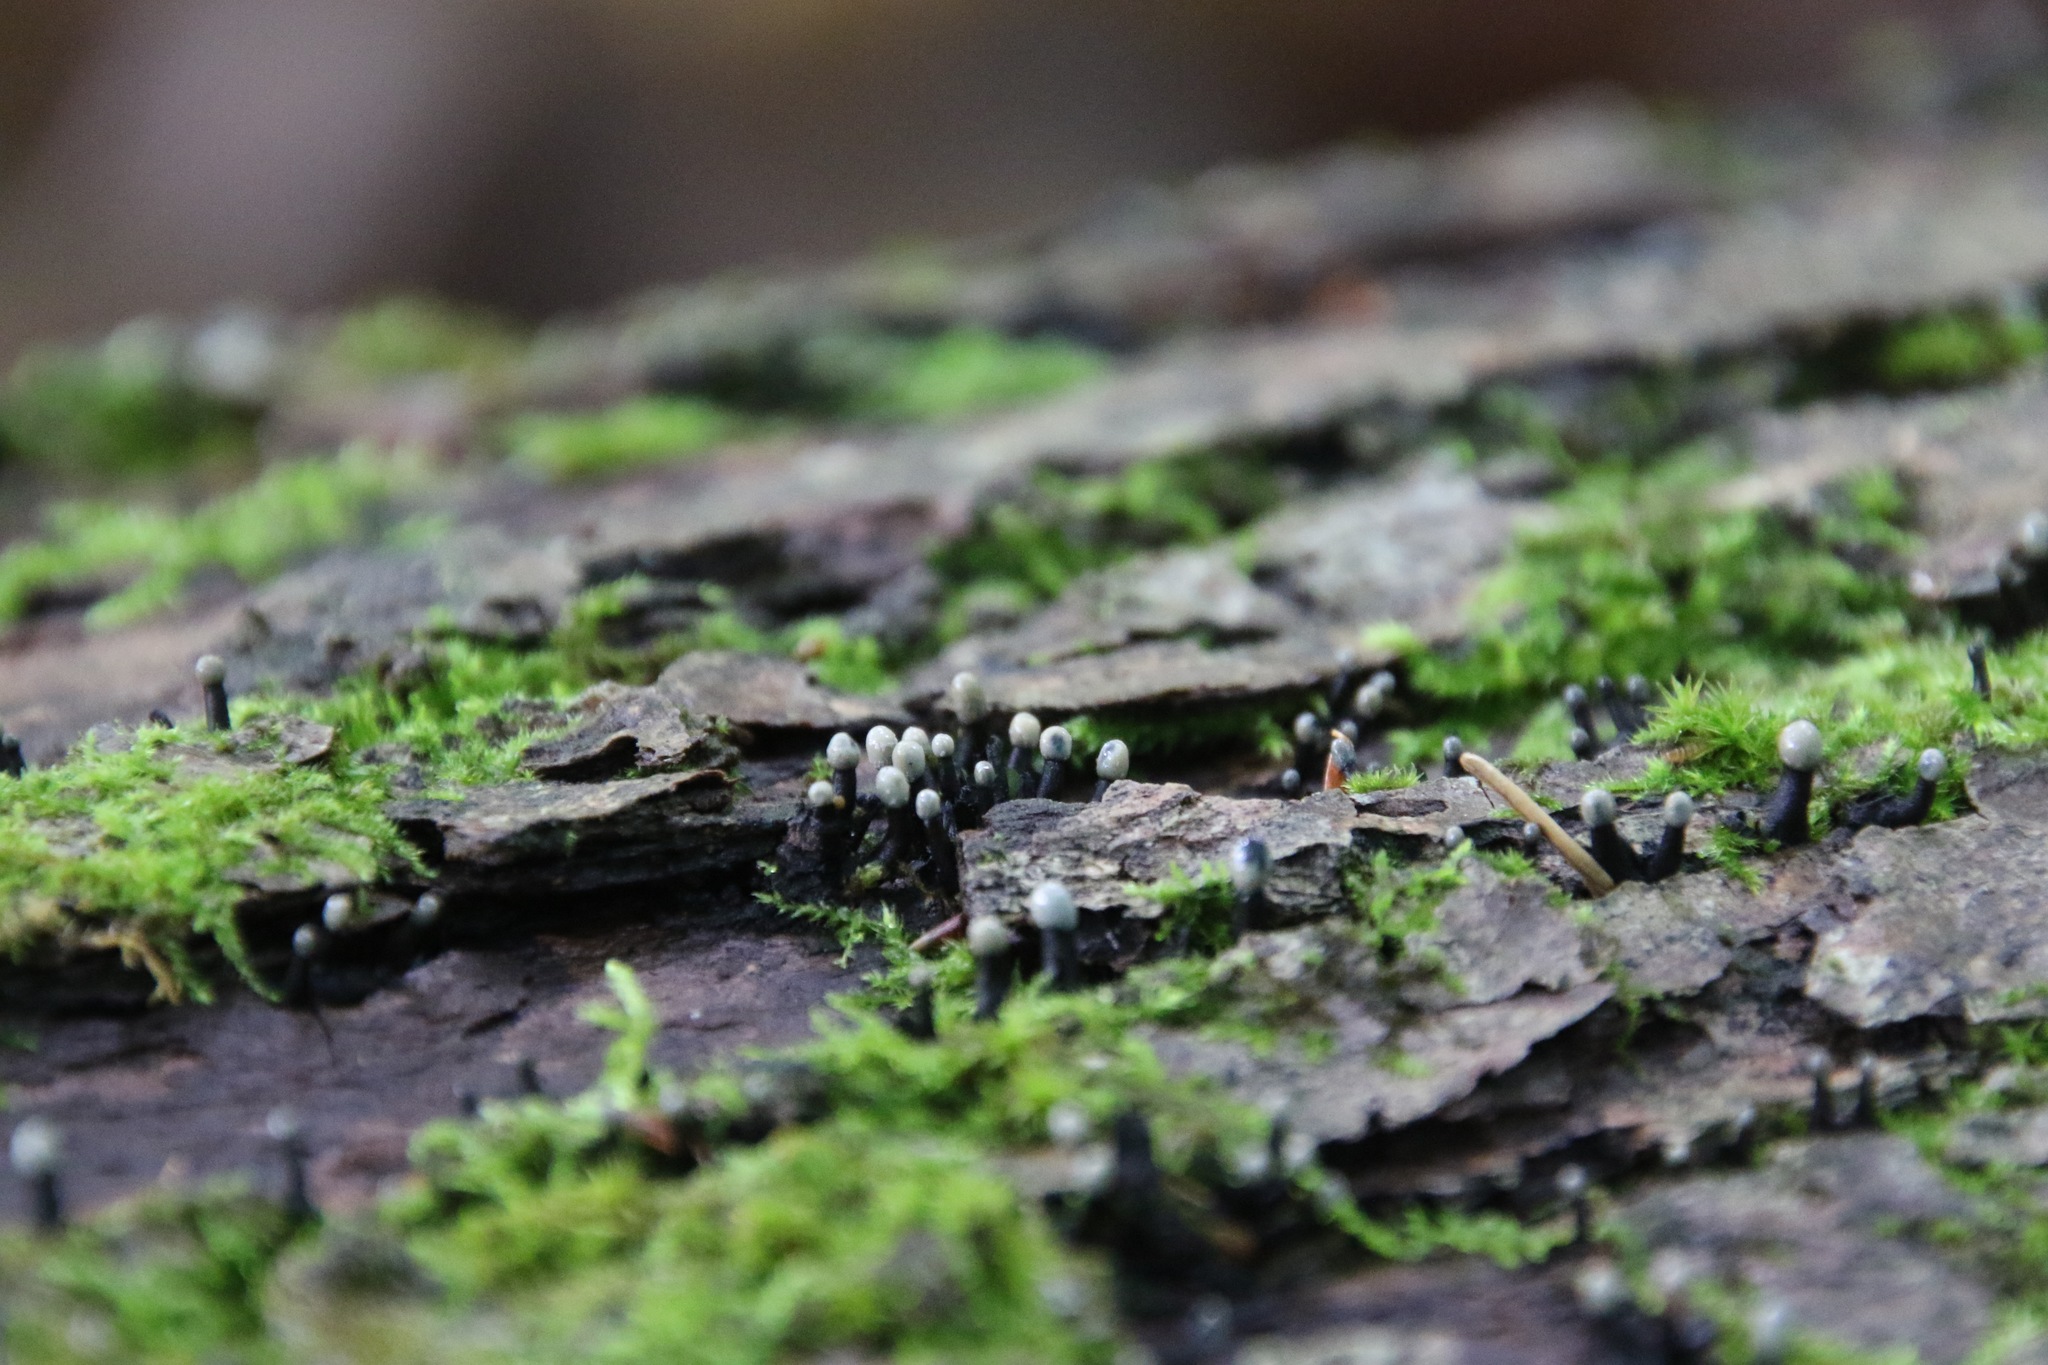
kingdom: Fungi
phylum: Ascomycota
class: Leotiomycetes
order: Helotiales
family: Bulgariaceae
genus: Holwaya
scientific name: Holwaya mucida
